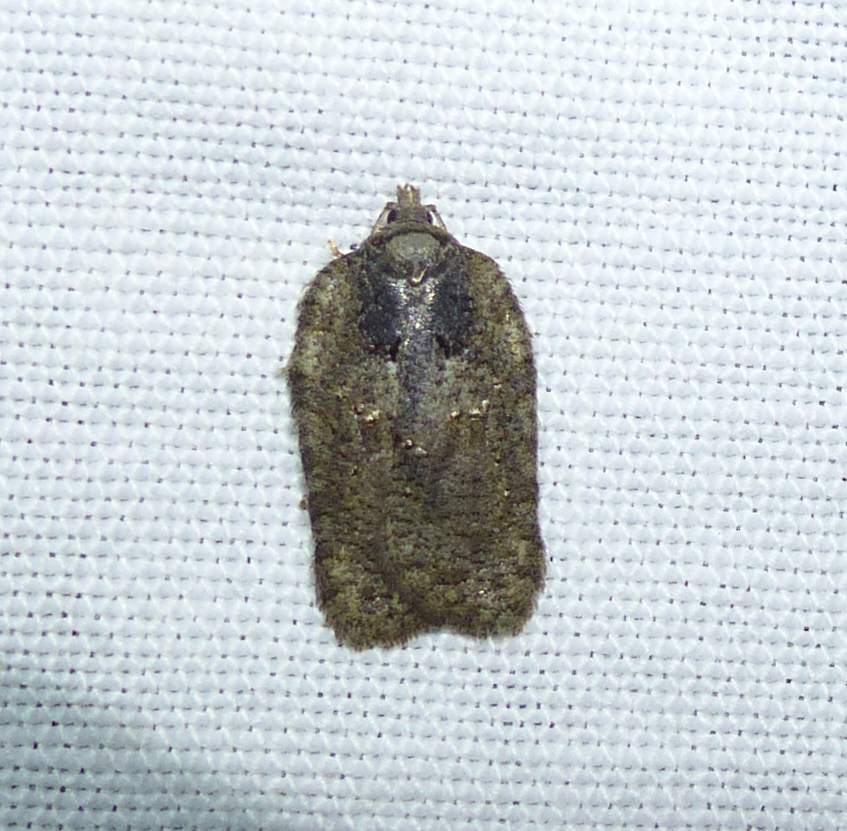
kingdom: Animalia
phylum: Arthropoda
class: Insecta
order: Lepidoptera
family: Tortricidae
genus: Acleris
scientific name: Acleris chalybeana
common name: Lesser maple leafroller
